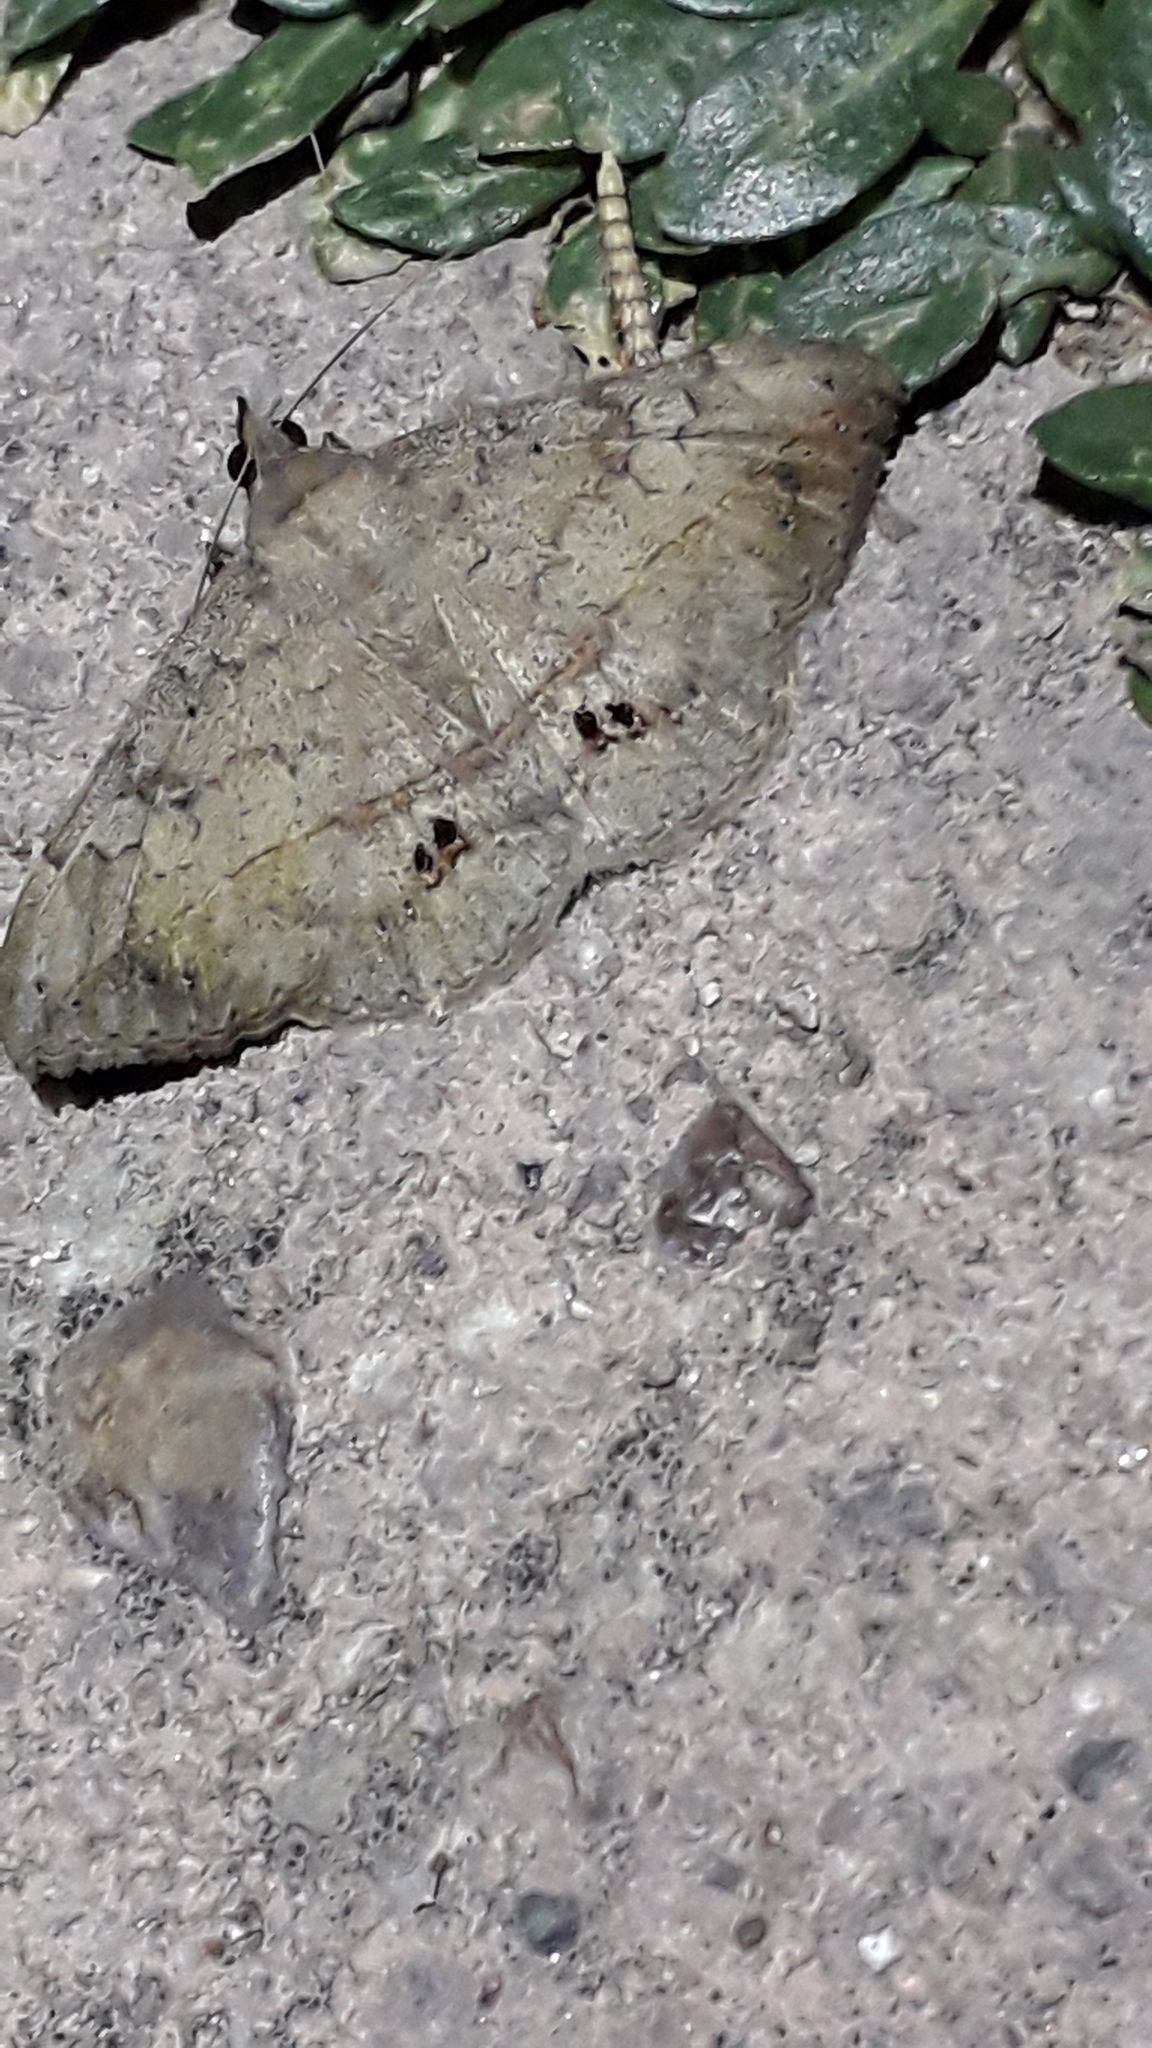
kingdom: Animalia
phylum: Arthropoda
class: Insecta
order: Lepidoptera
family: Erebidae
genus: Anticarsia
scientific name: Anticarsia gemmatalis
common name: Cutworm moth
